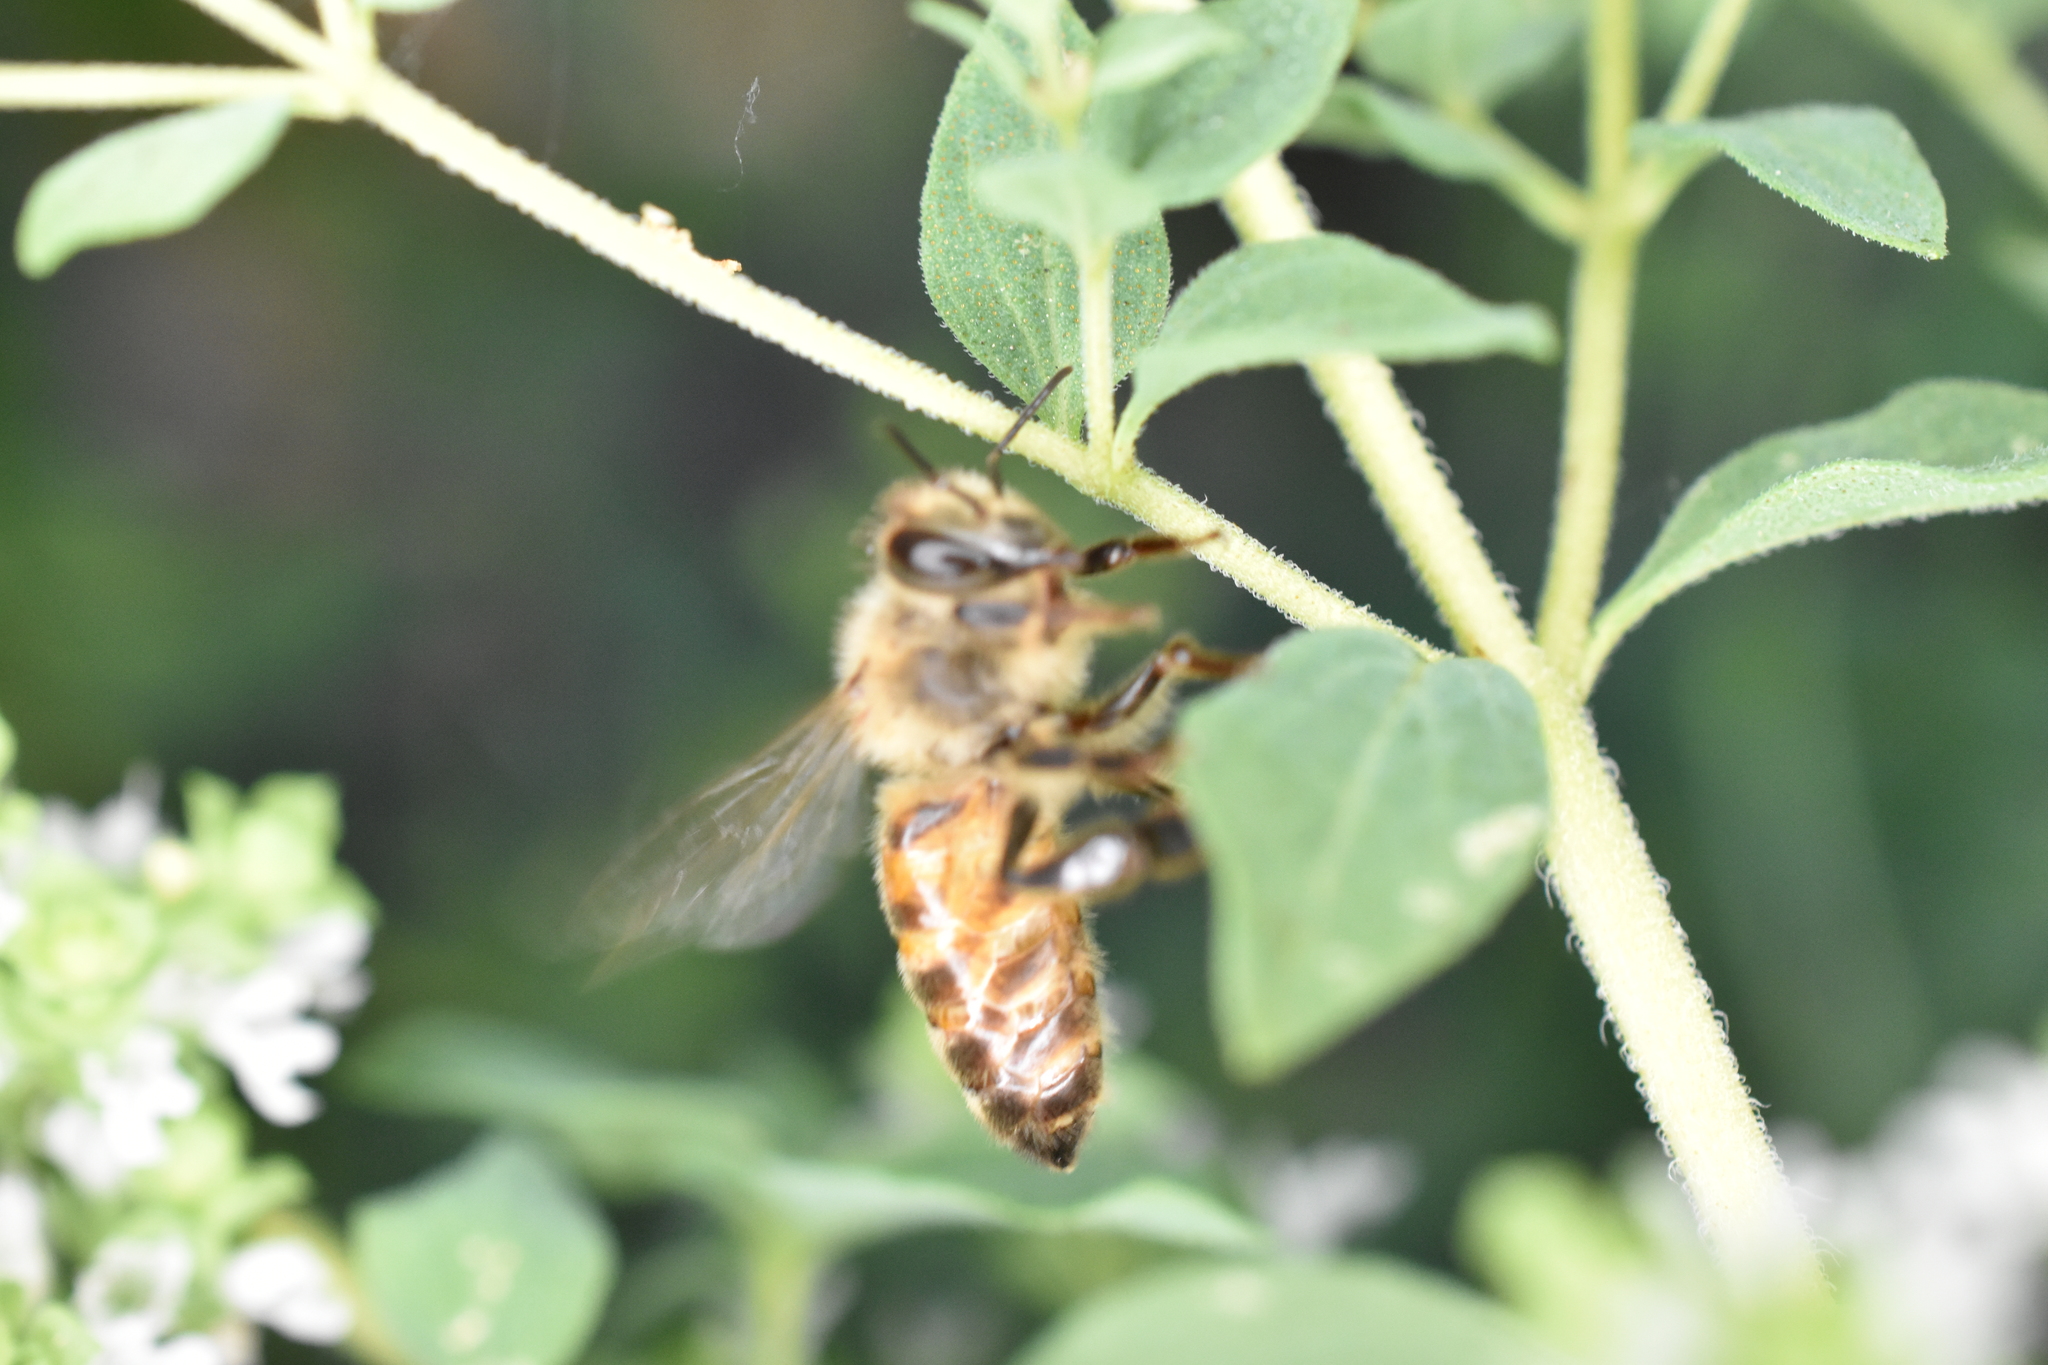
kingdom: Animalia
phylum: Arthropoda
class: Insecta
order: Hymenoptera
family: Apidae
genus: Apis
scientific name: Apis mellifera
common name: Honey bee
